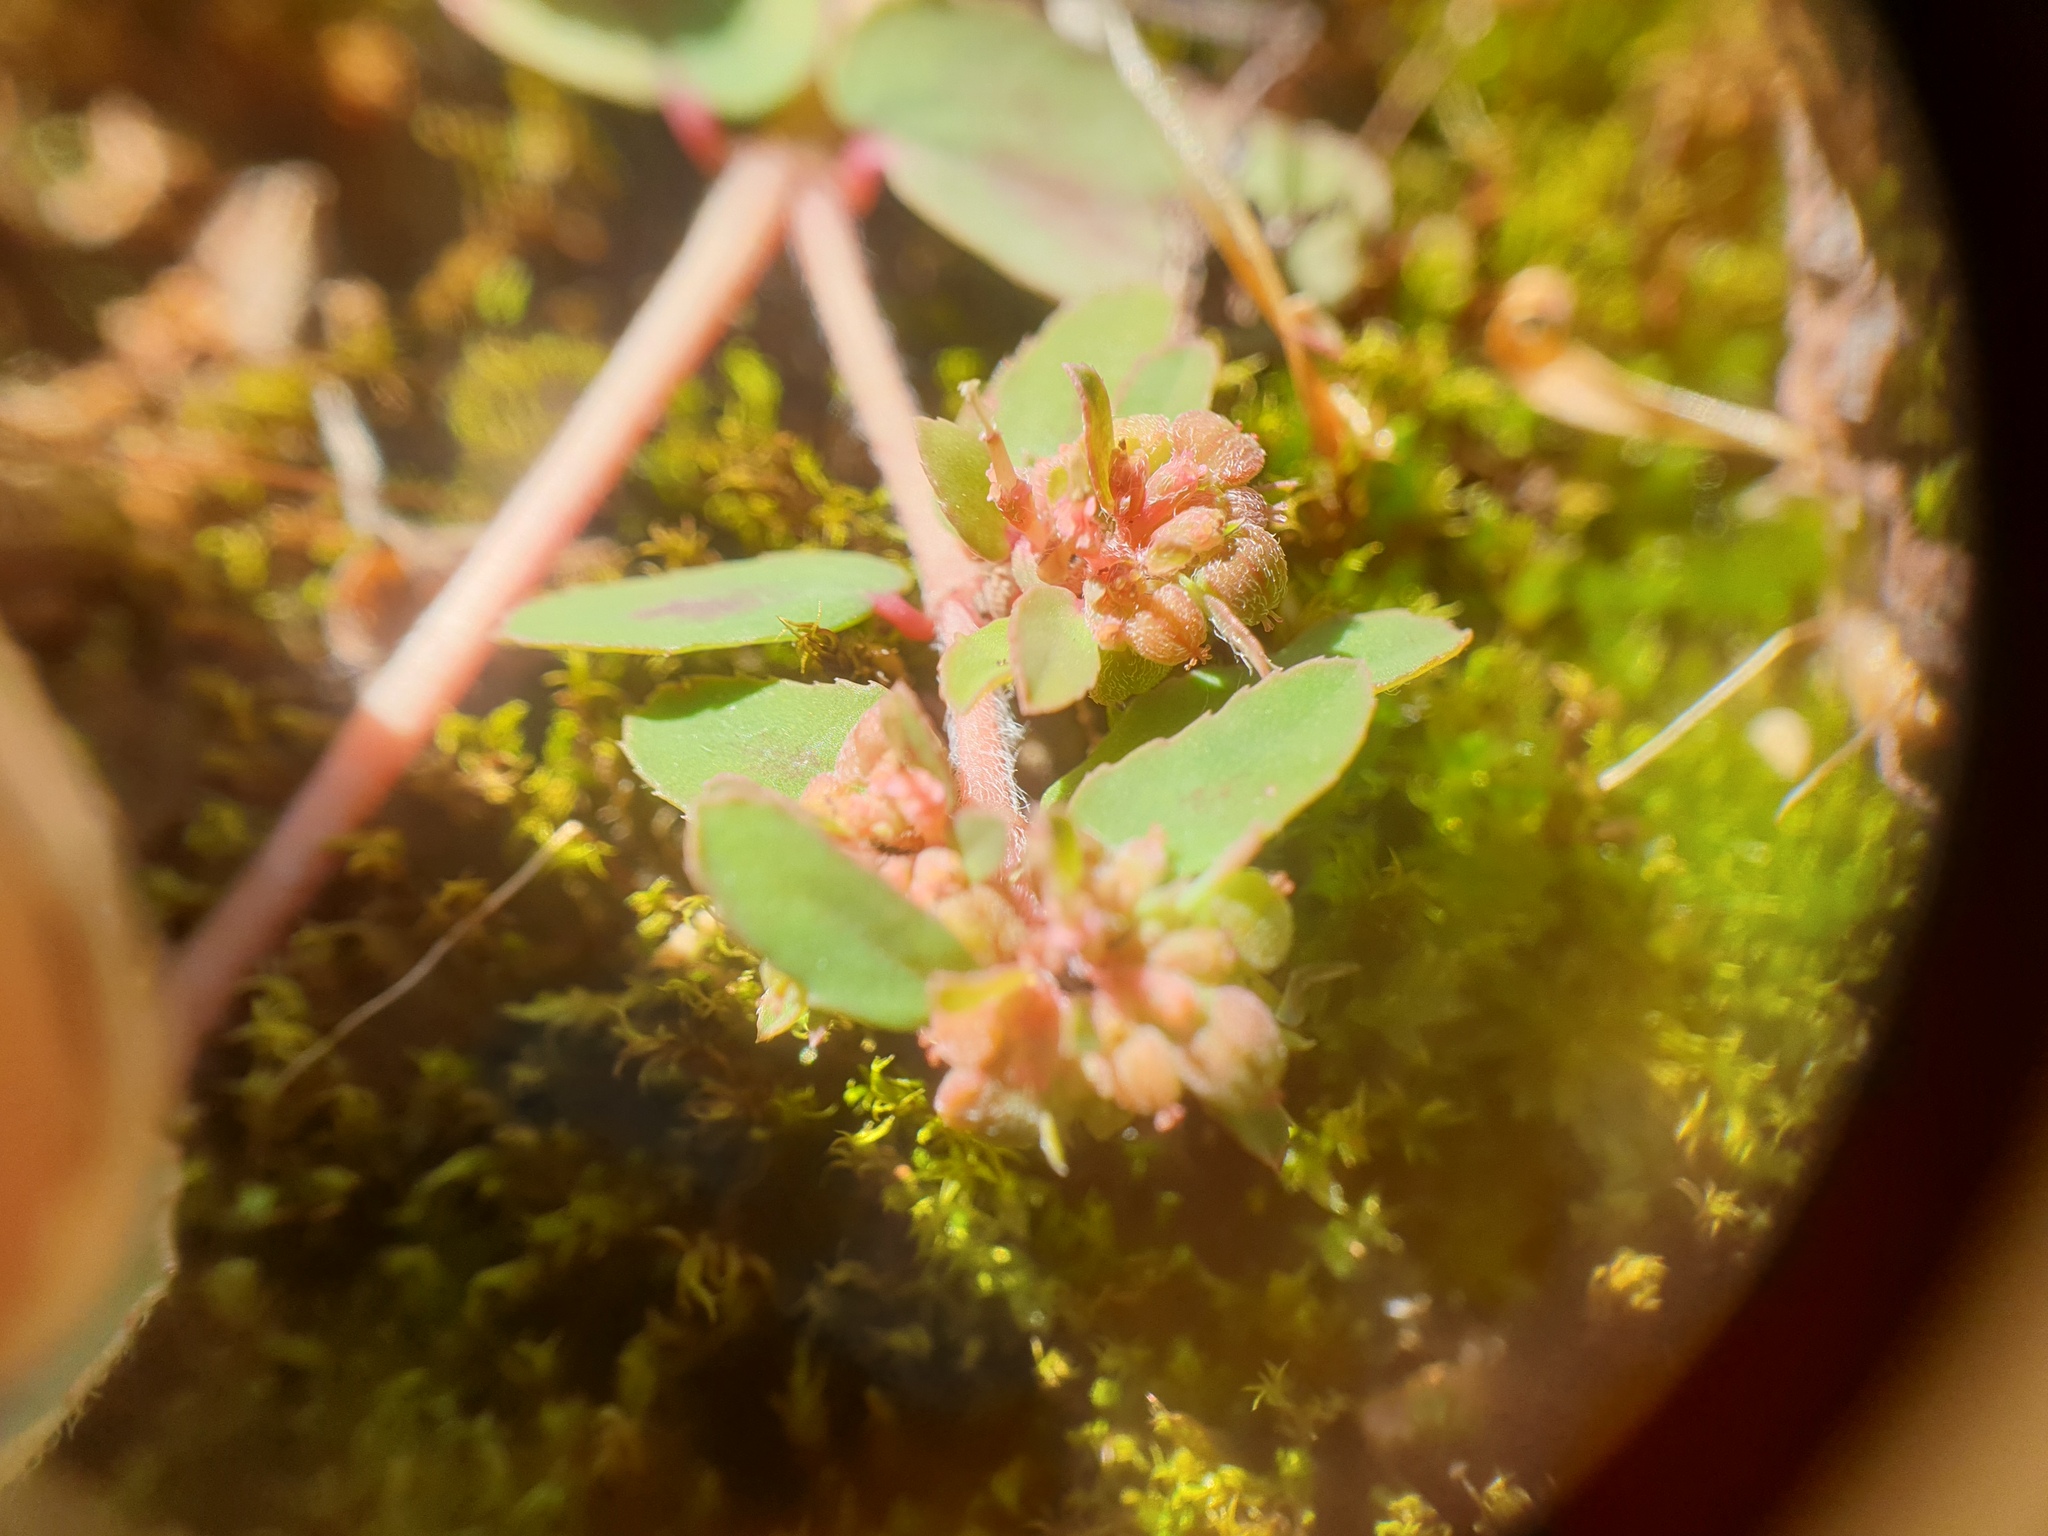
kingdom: Plantae
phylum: Tracheophyta
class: Magnoliopsida
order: Malpighiales
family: Euphorbiaceae
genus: Euphorbia
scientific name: Euphorbia maculata
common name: Spotted spurge
